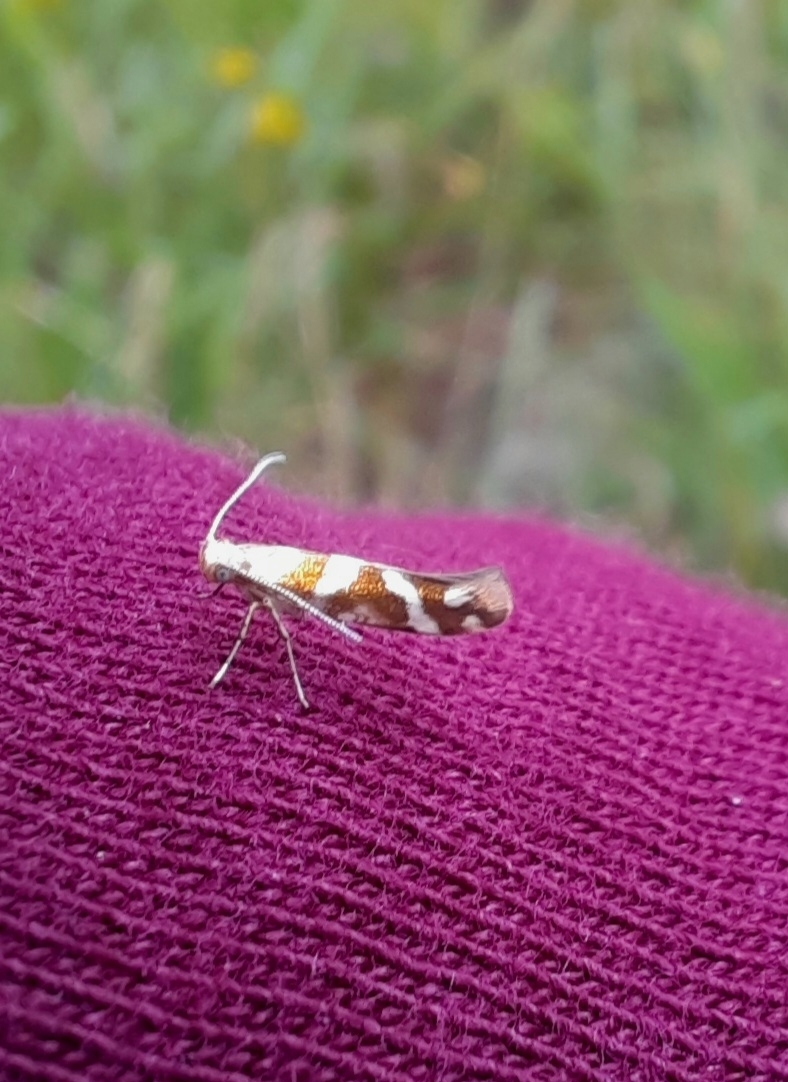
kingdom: Animalia
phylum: Arthropoda
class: Insecta
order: Lepidoptera
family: Argyresthiidae
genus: Argyresthia
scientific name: Argyresthia goedartella
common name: Golden argent
